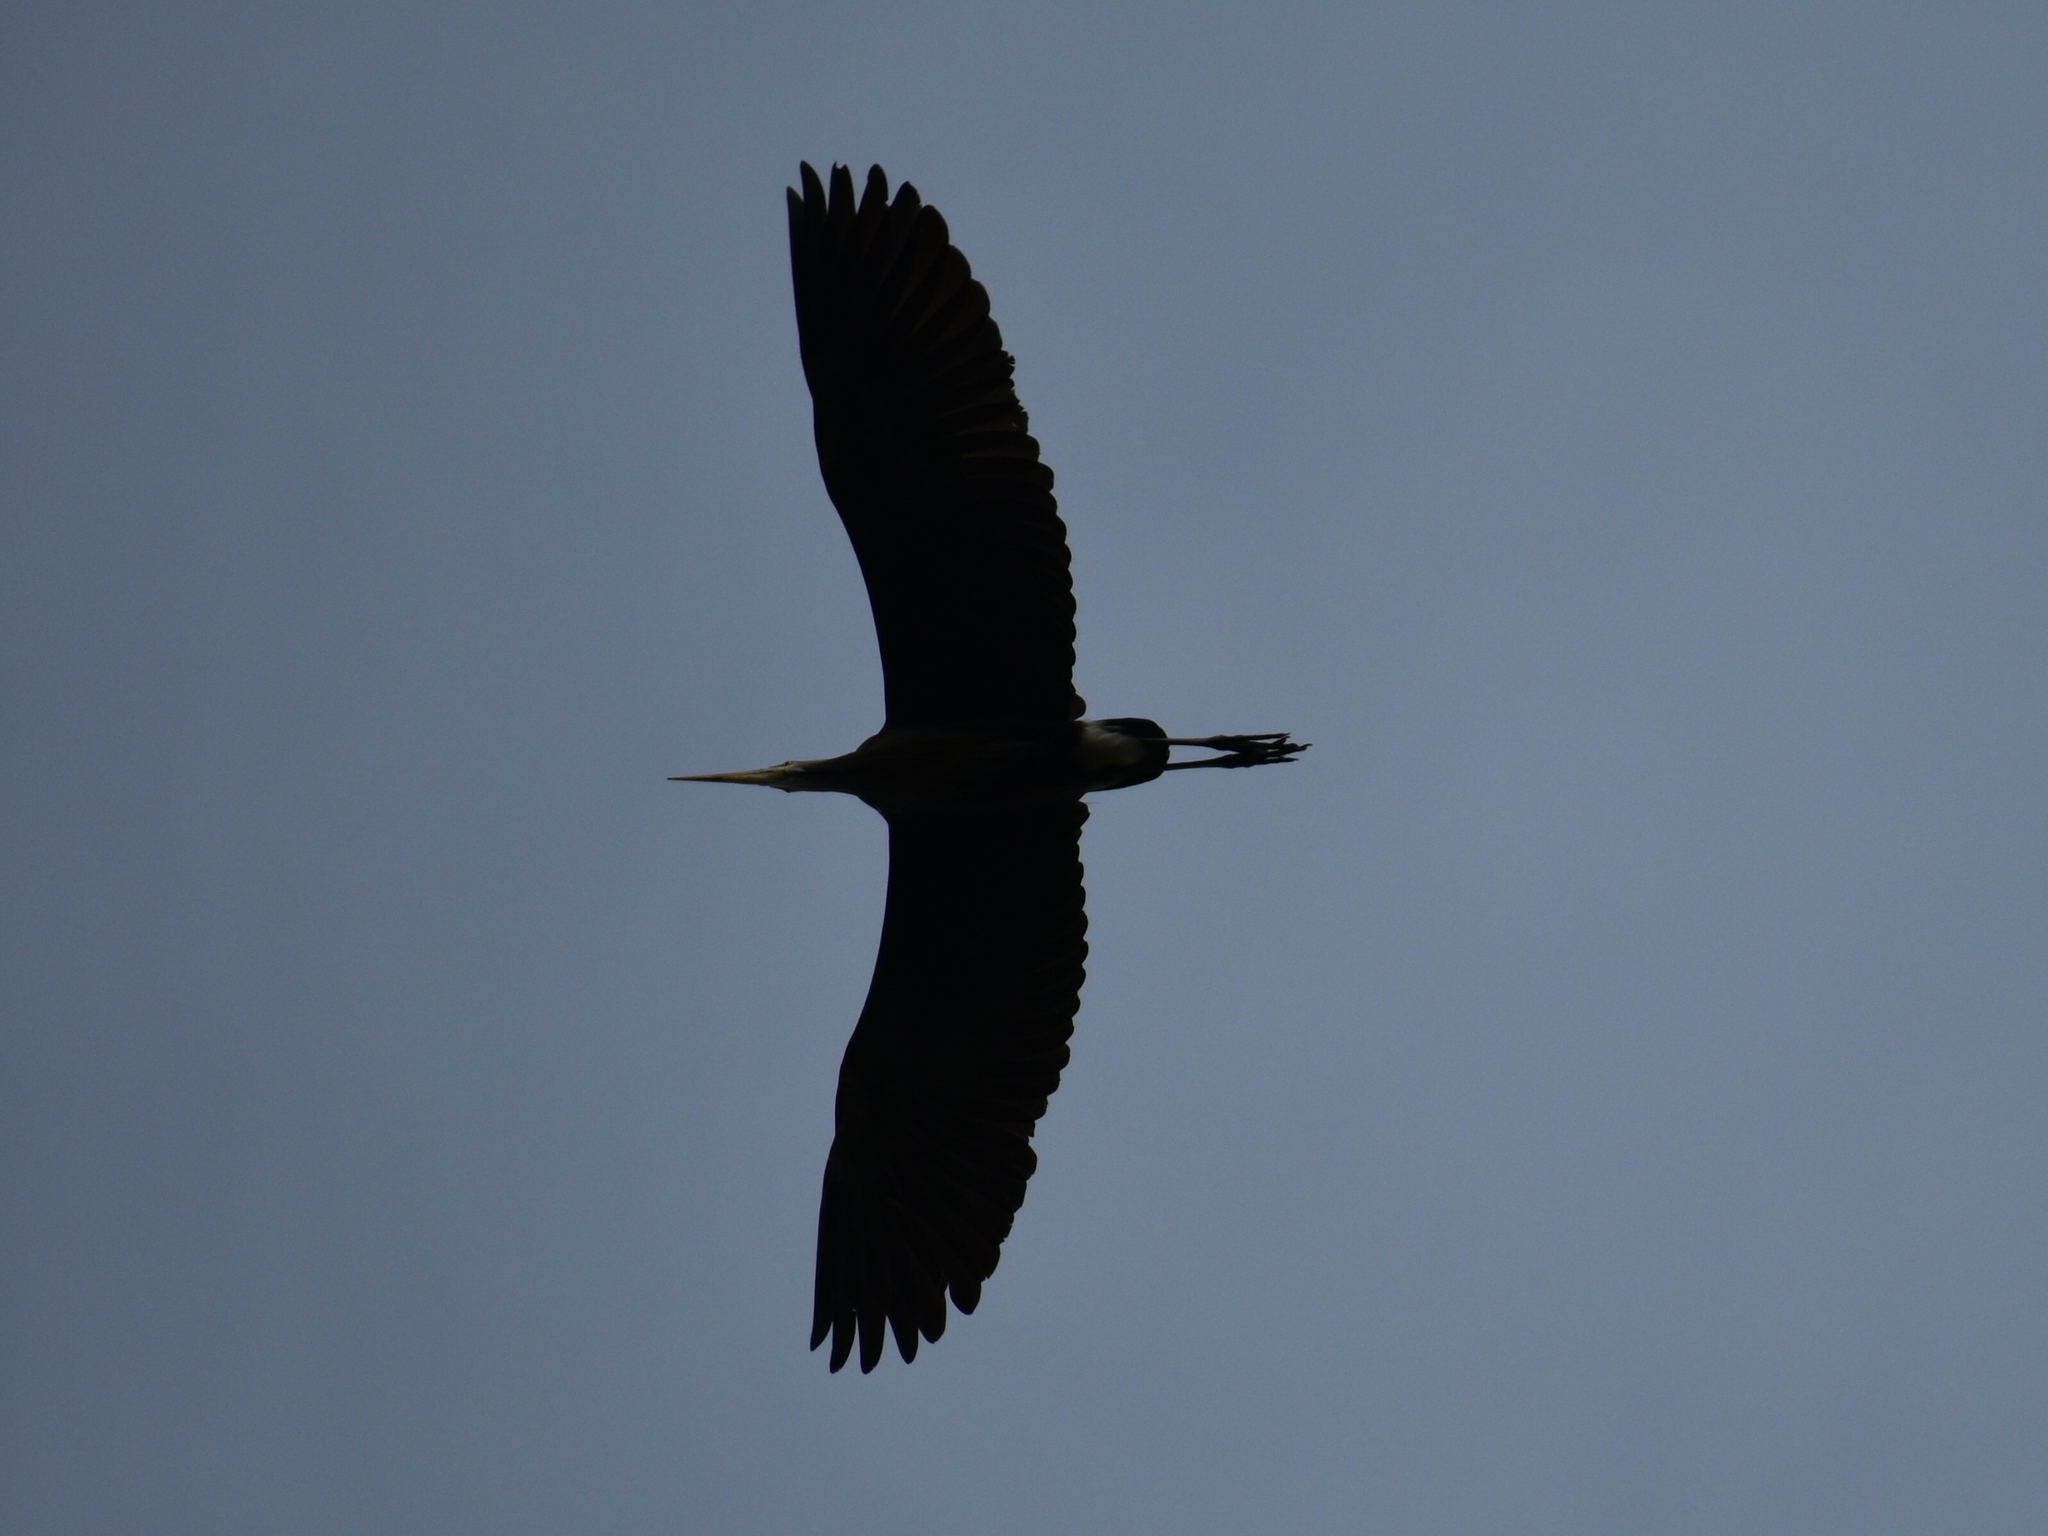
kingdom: Animalia
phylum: Chordata
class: Aves
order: Pelecaniformes
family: Ardeidae
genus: Ardea
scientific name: Ardea herodias
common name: Great blue heron
